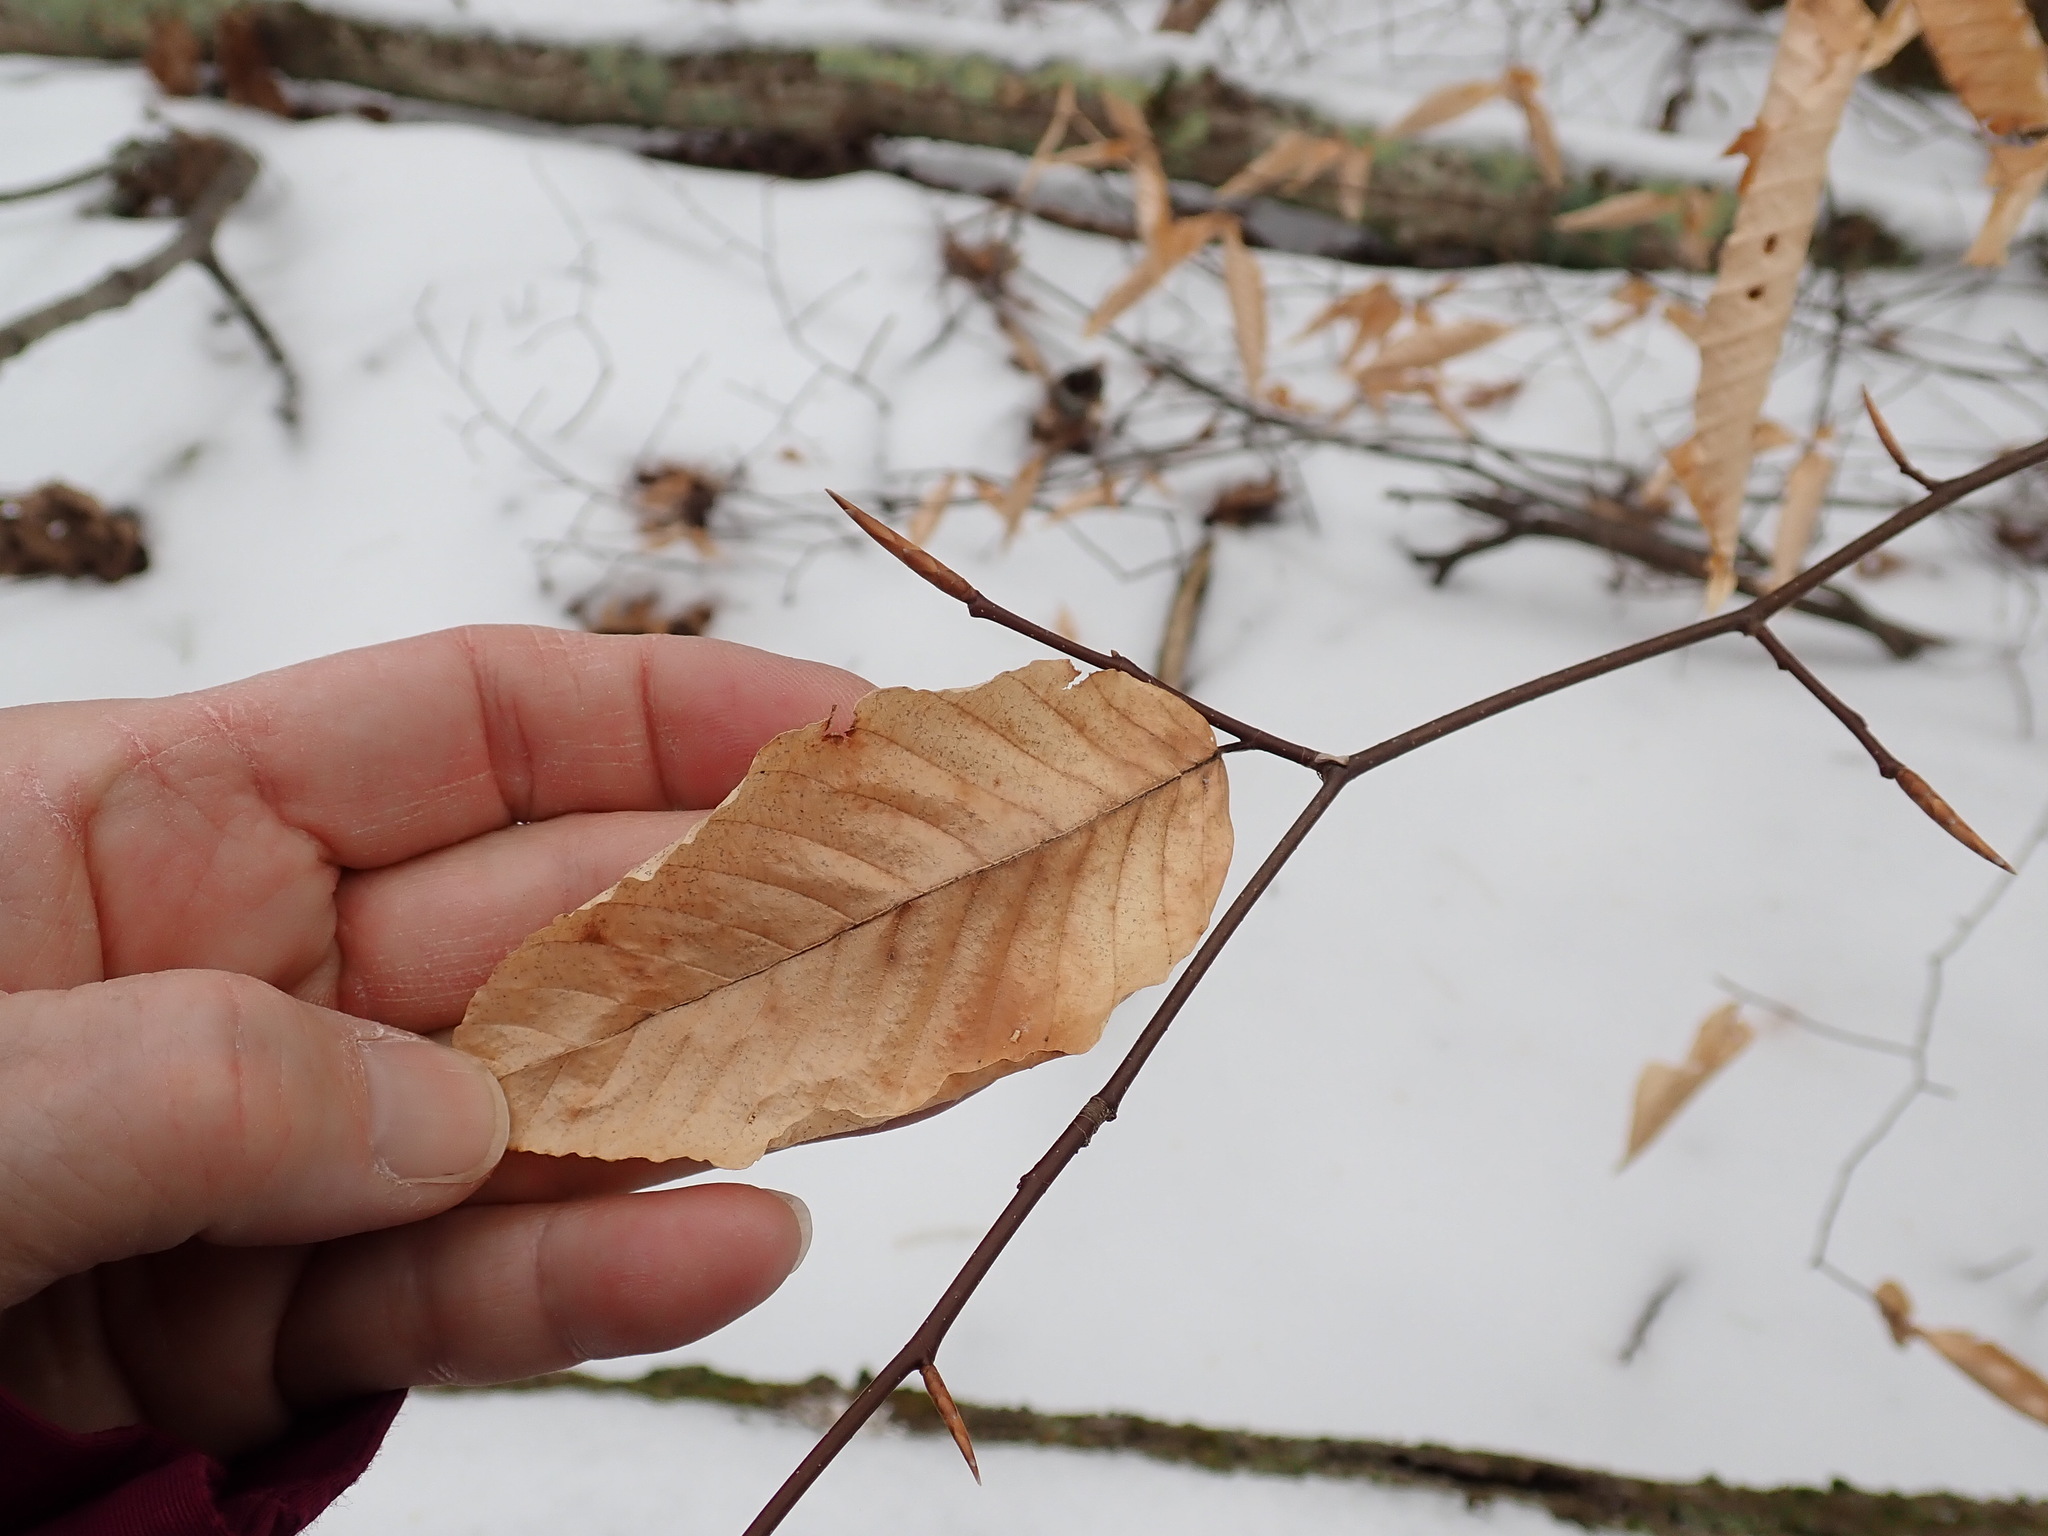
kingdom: Plantae
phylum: Tracheophyta
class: Magnoliopsida
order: Fagales
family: Fagaceae
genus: Fagus
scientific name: Fagus grandifolia
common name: American beech
